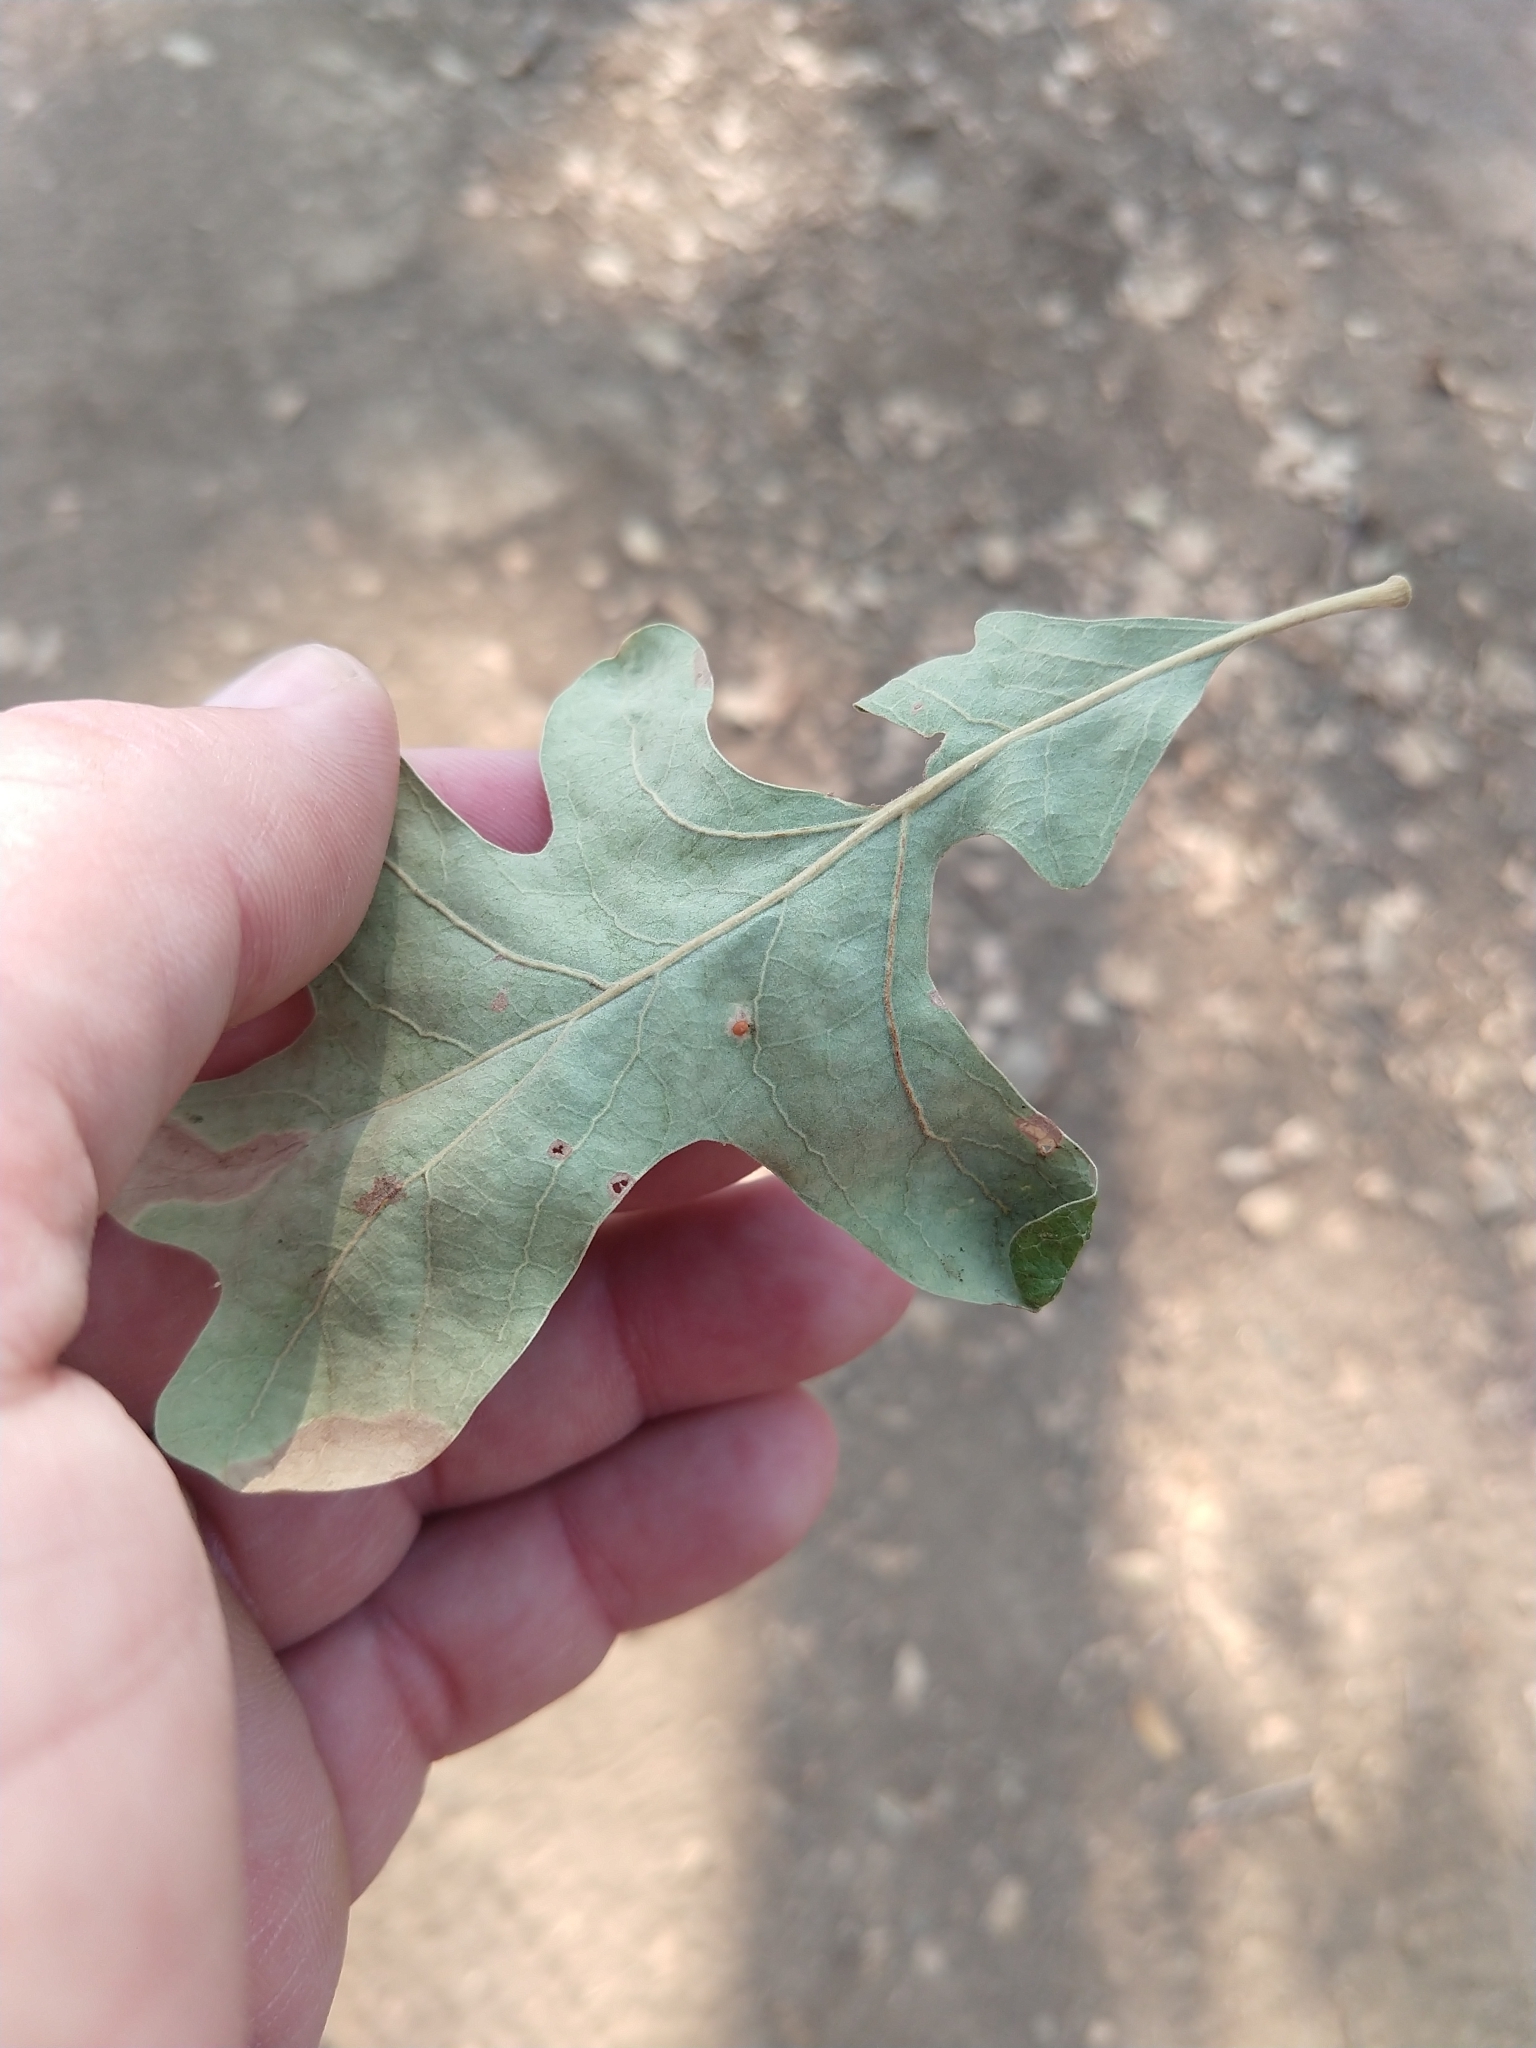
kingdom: Animalia
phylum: Arthropoda
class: Insecta
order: Hymenoptera
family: Cynipidae
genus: Neuroterus
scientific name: Neuroterus saltarius
